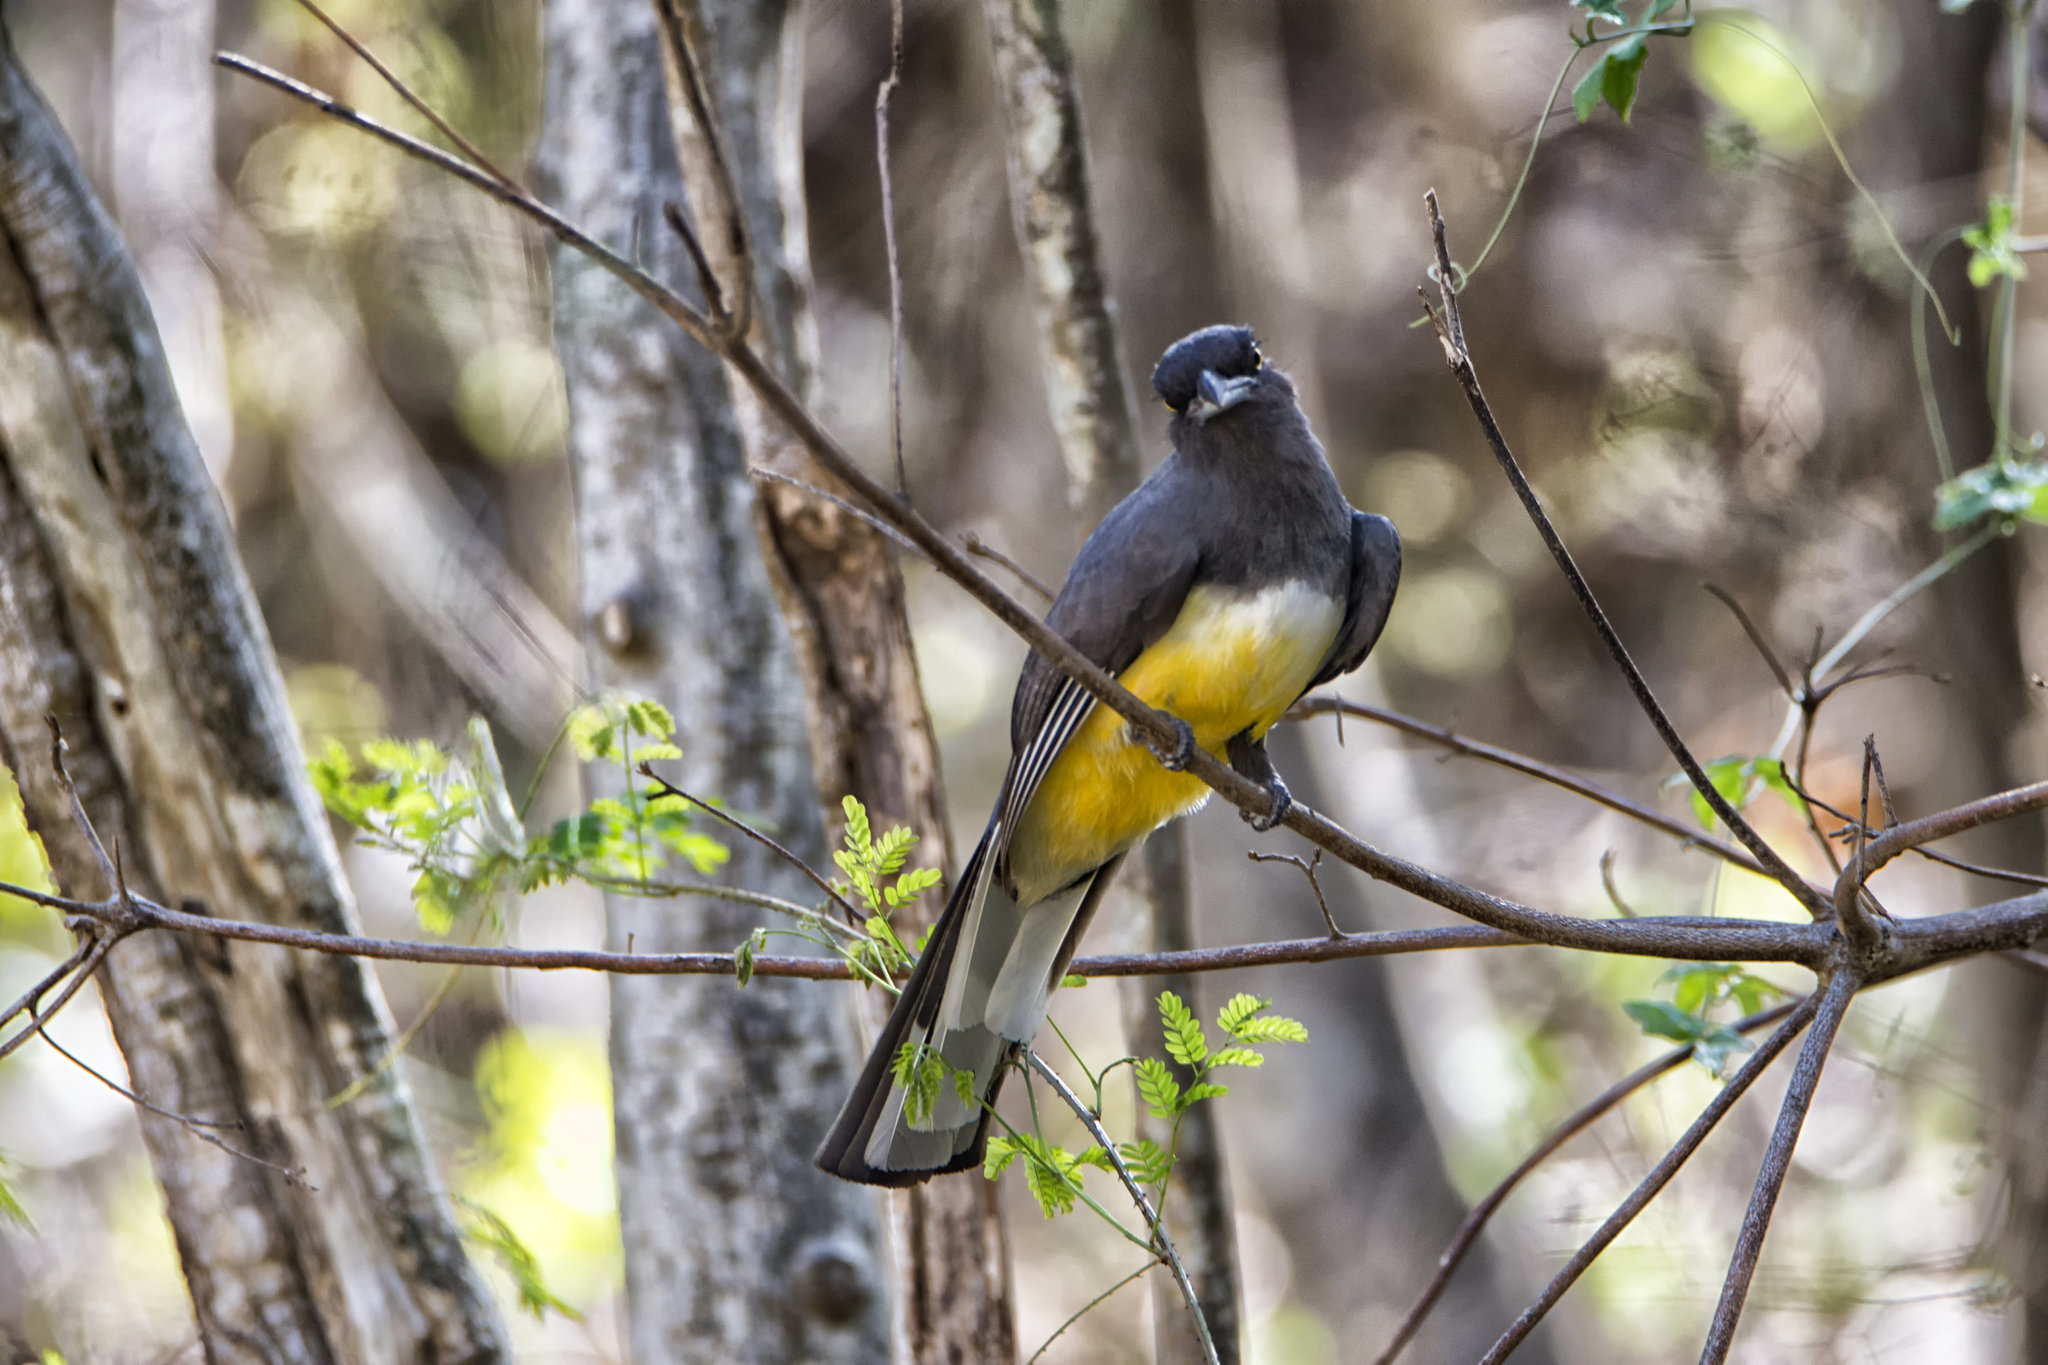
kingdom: Animalia
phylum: Chordata
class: Aves
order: Trogoniformes
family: Trogonidae
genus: Trogon
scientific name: Trogon citreolus
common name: Citreoline trogon
